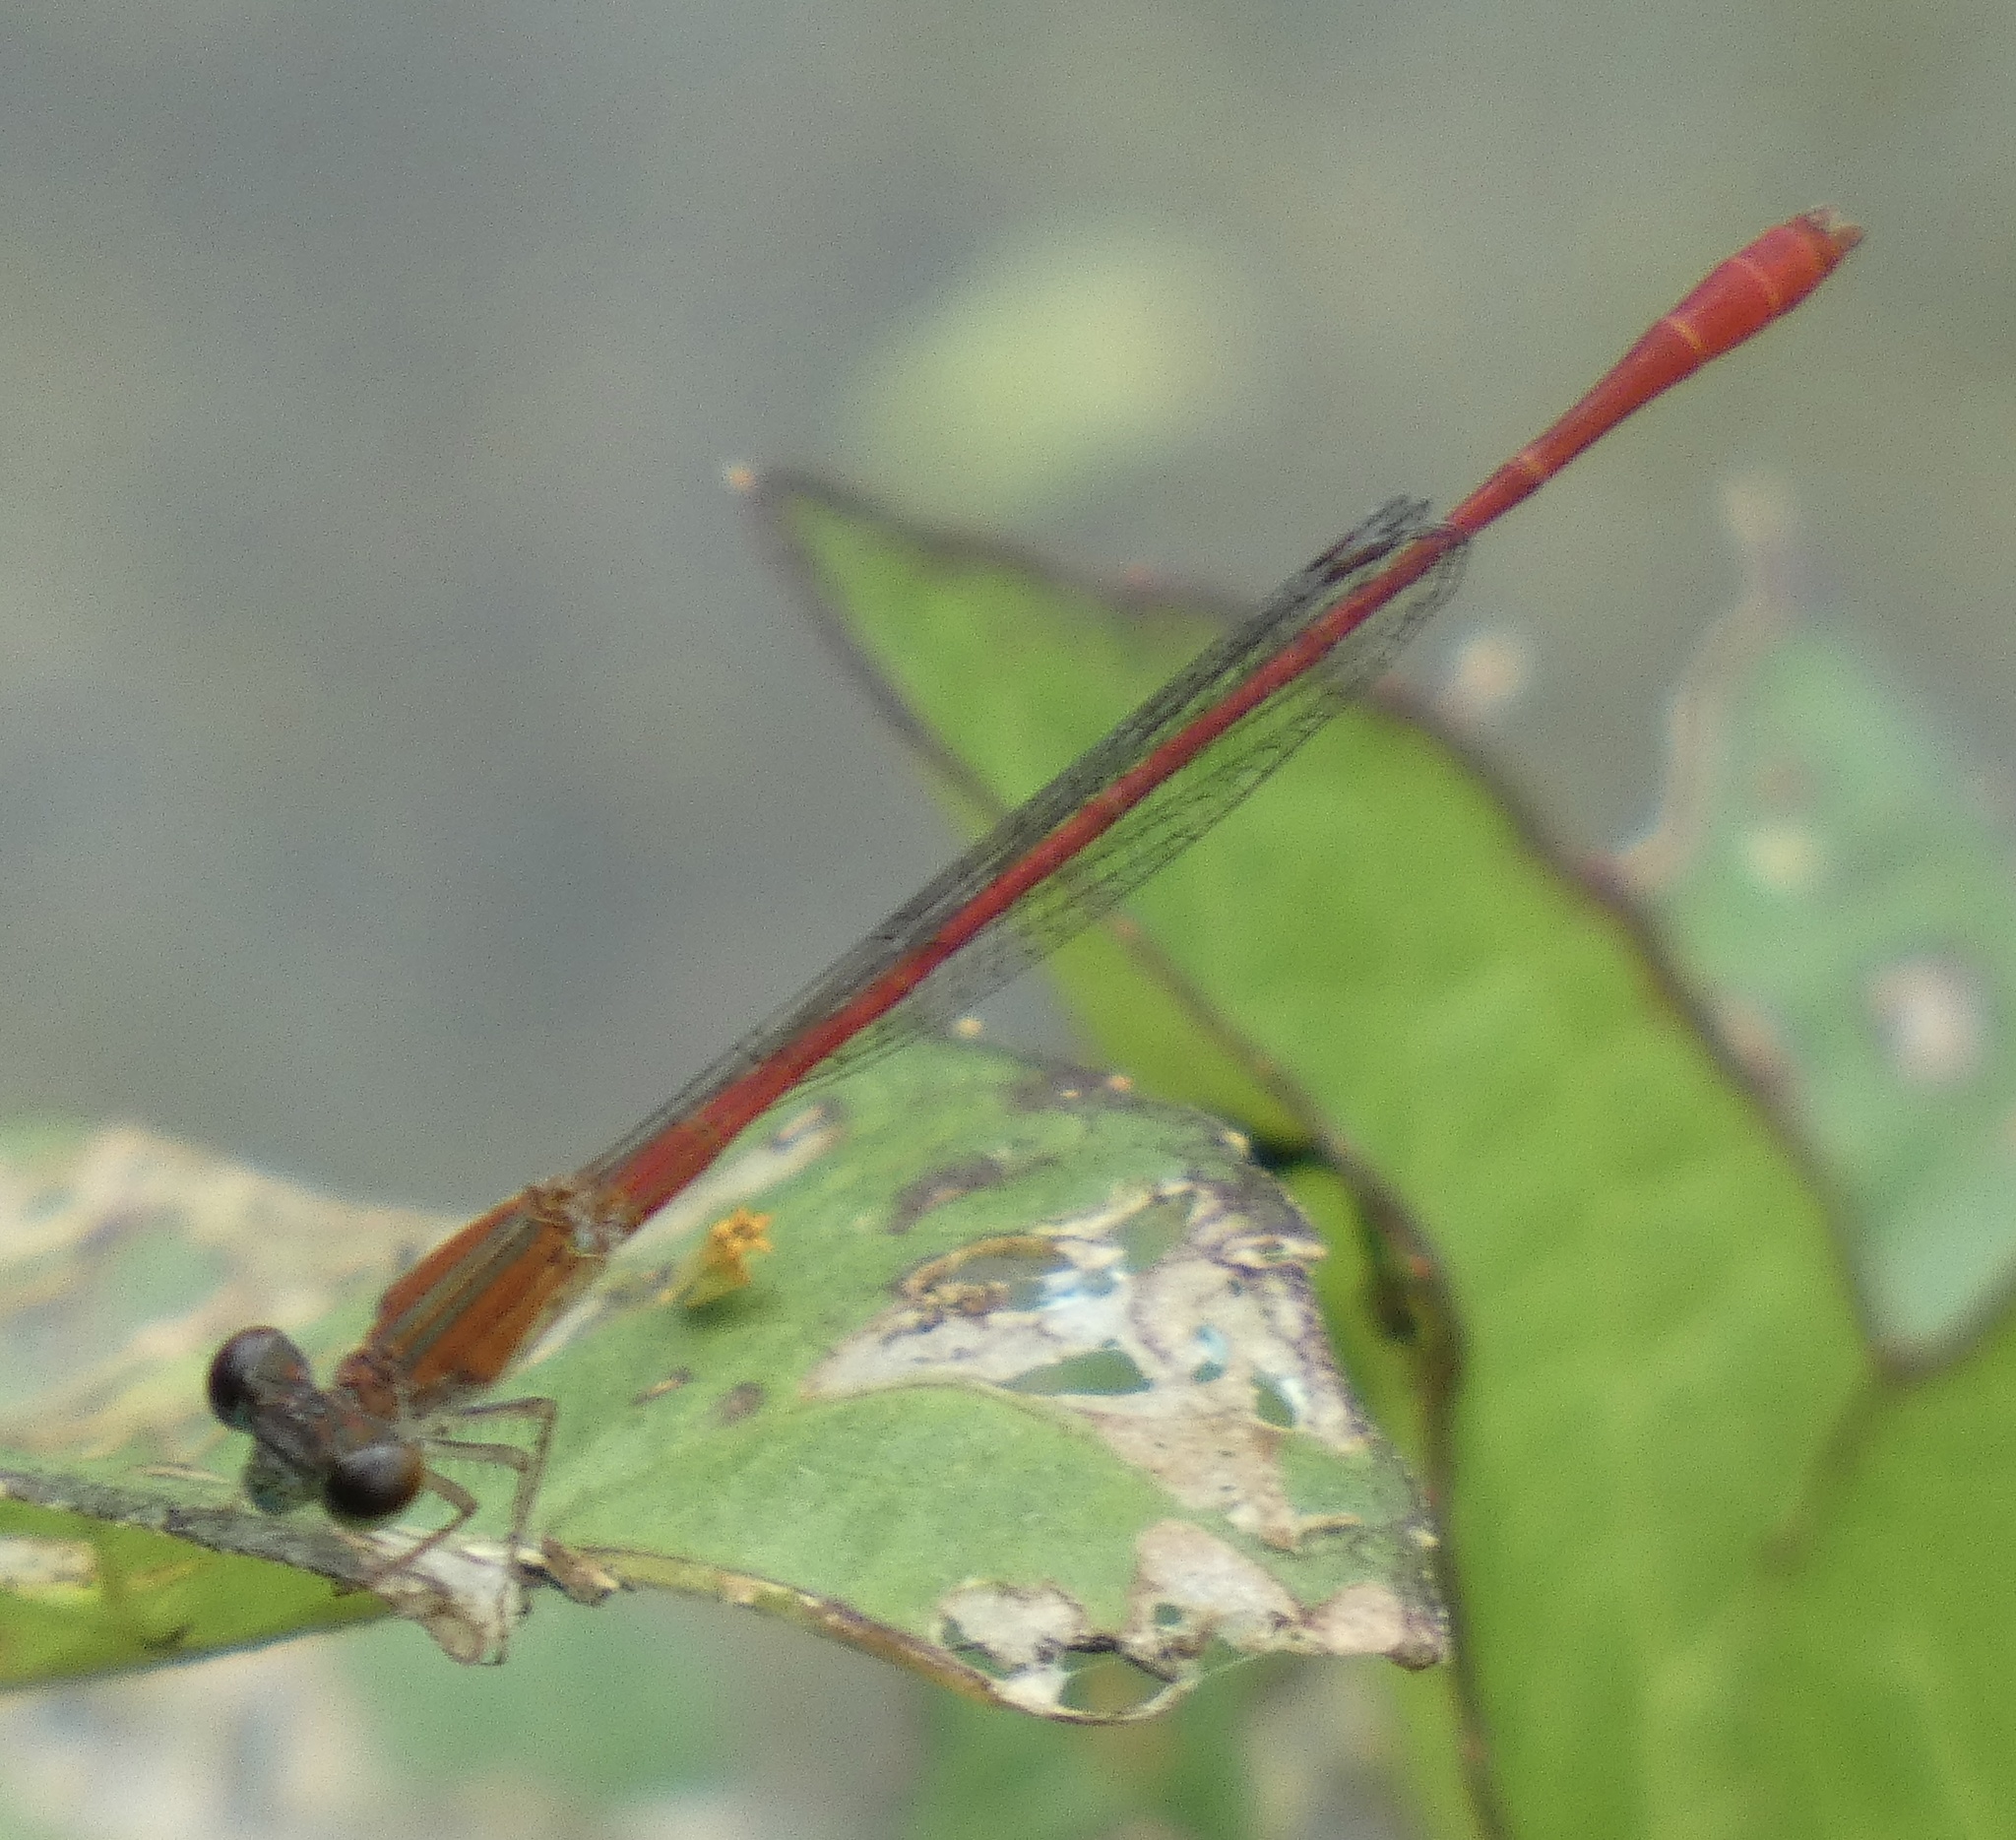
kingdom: Animalia
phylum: Arthropoda
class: Insecta
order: Odonata
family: Coenagrionidae
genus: Telebasis
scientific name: Telebasis corallina
